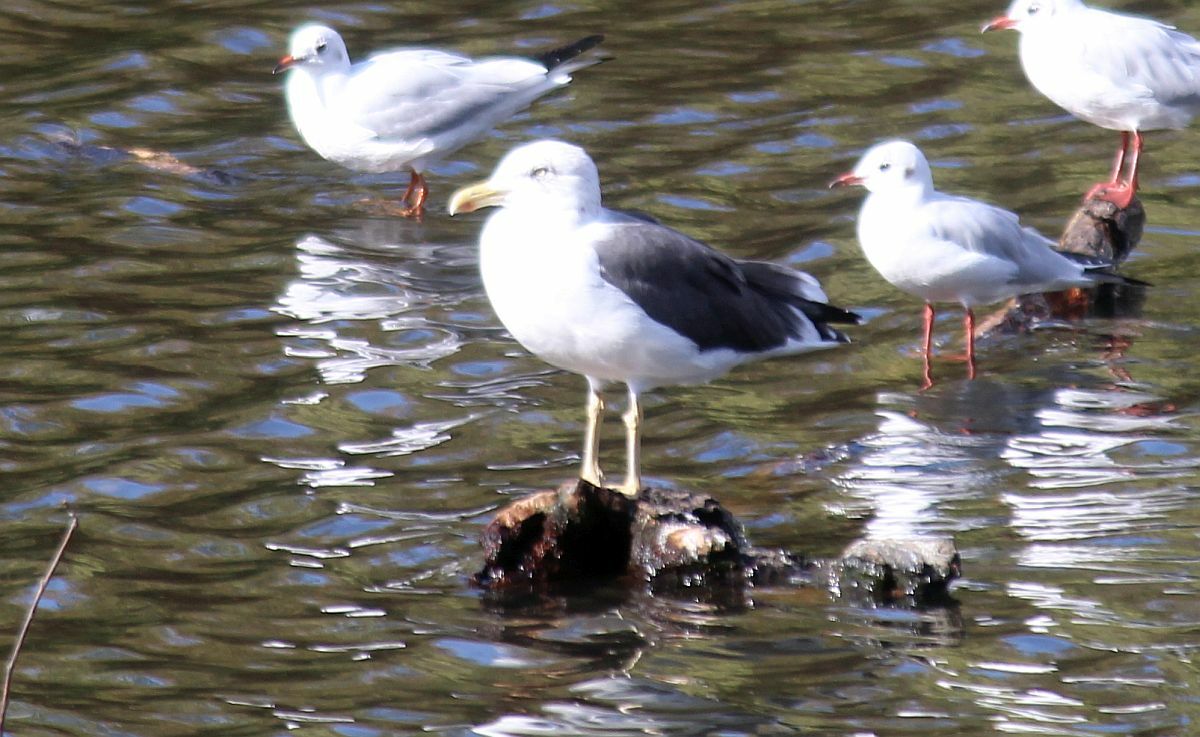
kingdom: Animalia
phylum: Chordata
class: Aves
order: Charadriiformes
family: Laridae
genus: Larus
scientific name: Larus fuscus
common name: Lesser black-backed gull
